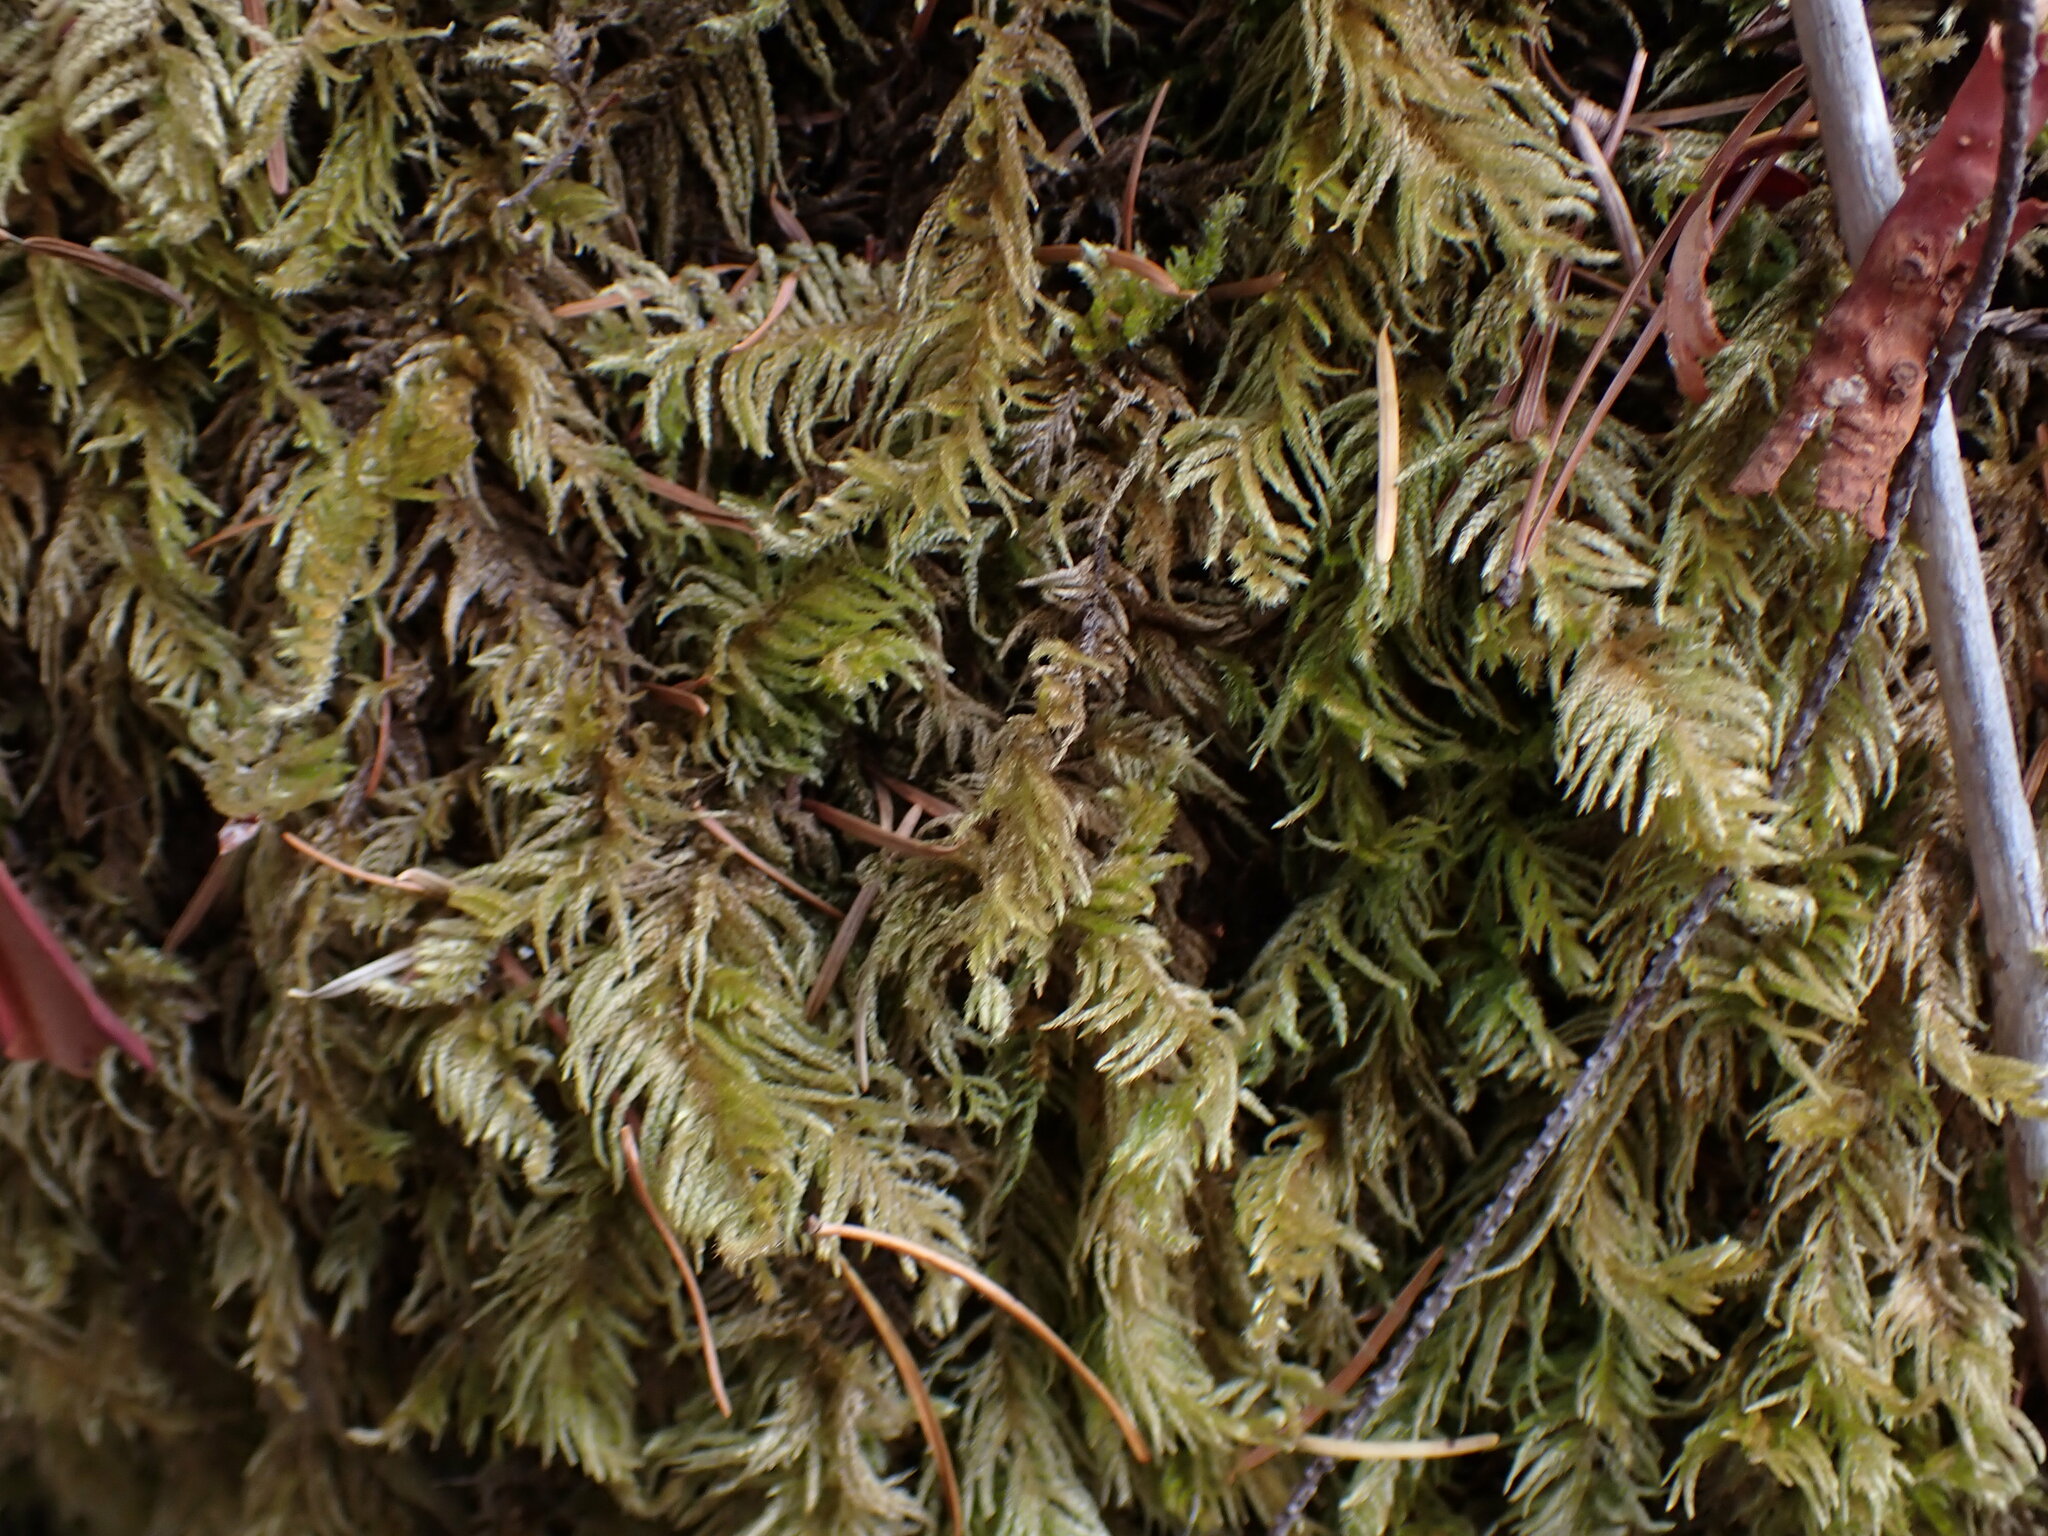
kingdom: Plantae
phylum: Bryophyta
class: Bryopsida
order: Hypnales
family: Brachytheciaceae
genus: Kindbergia
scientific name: Kindbergia oregana
